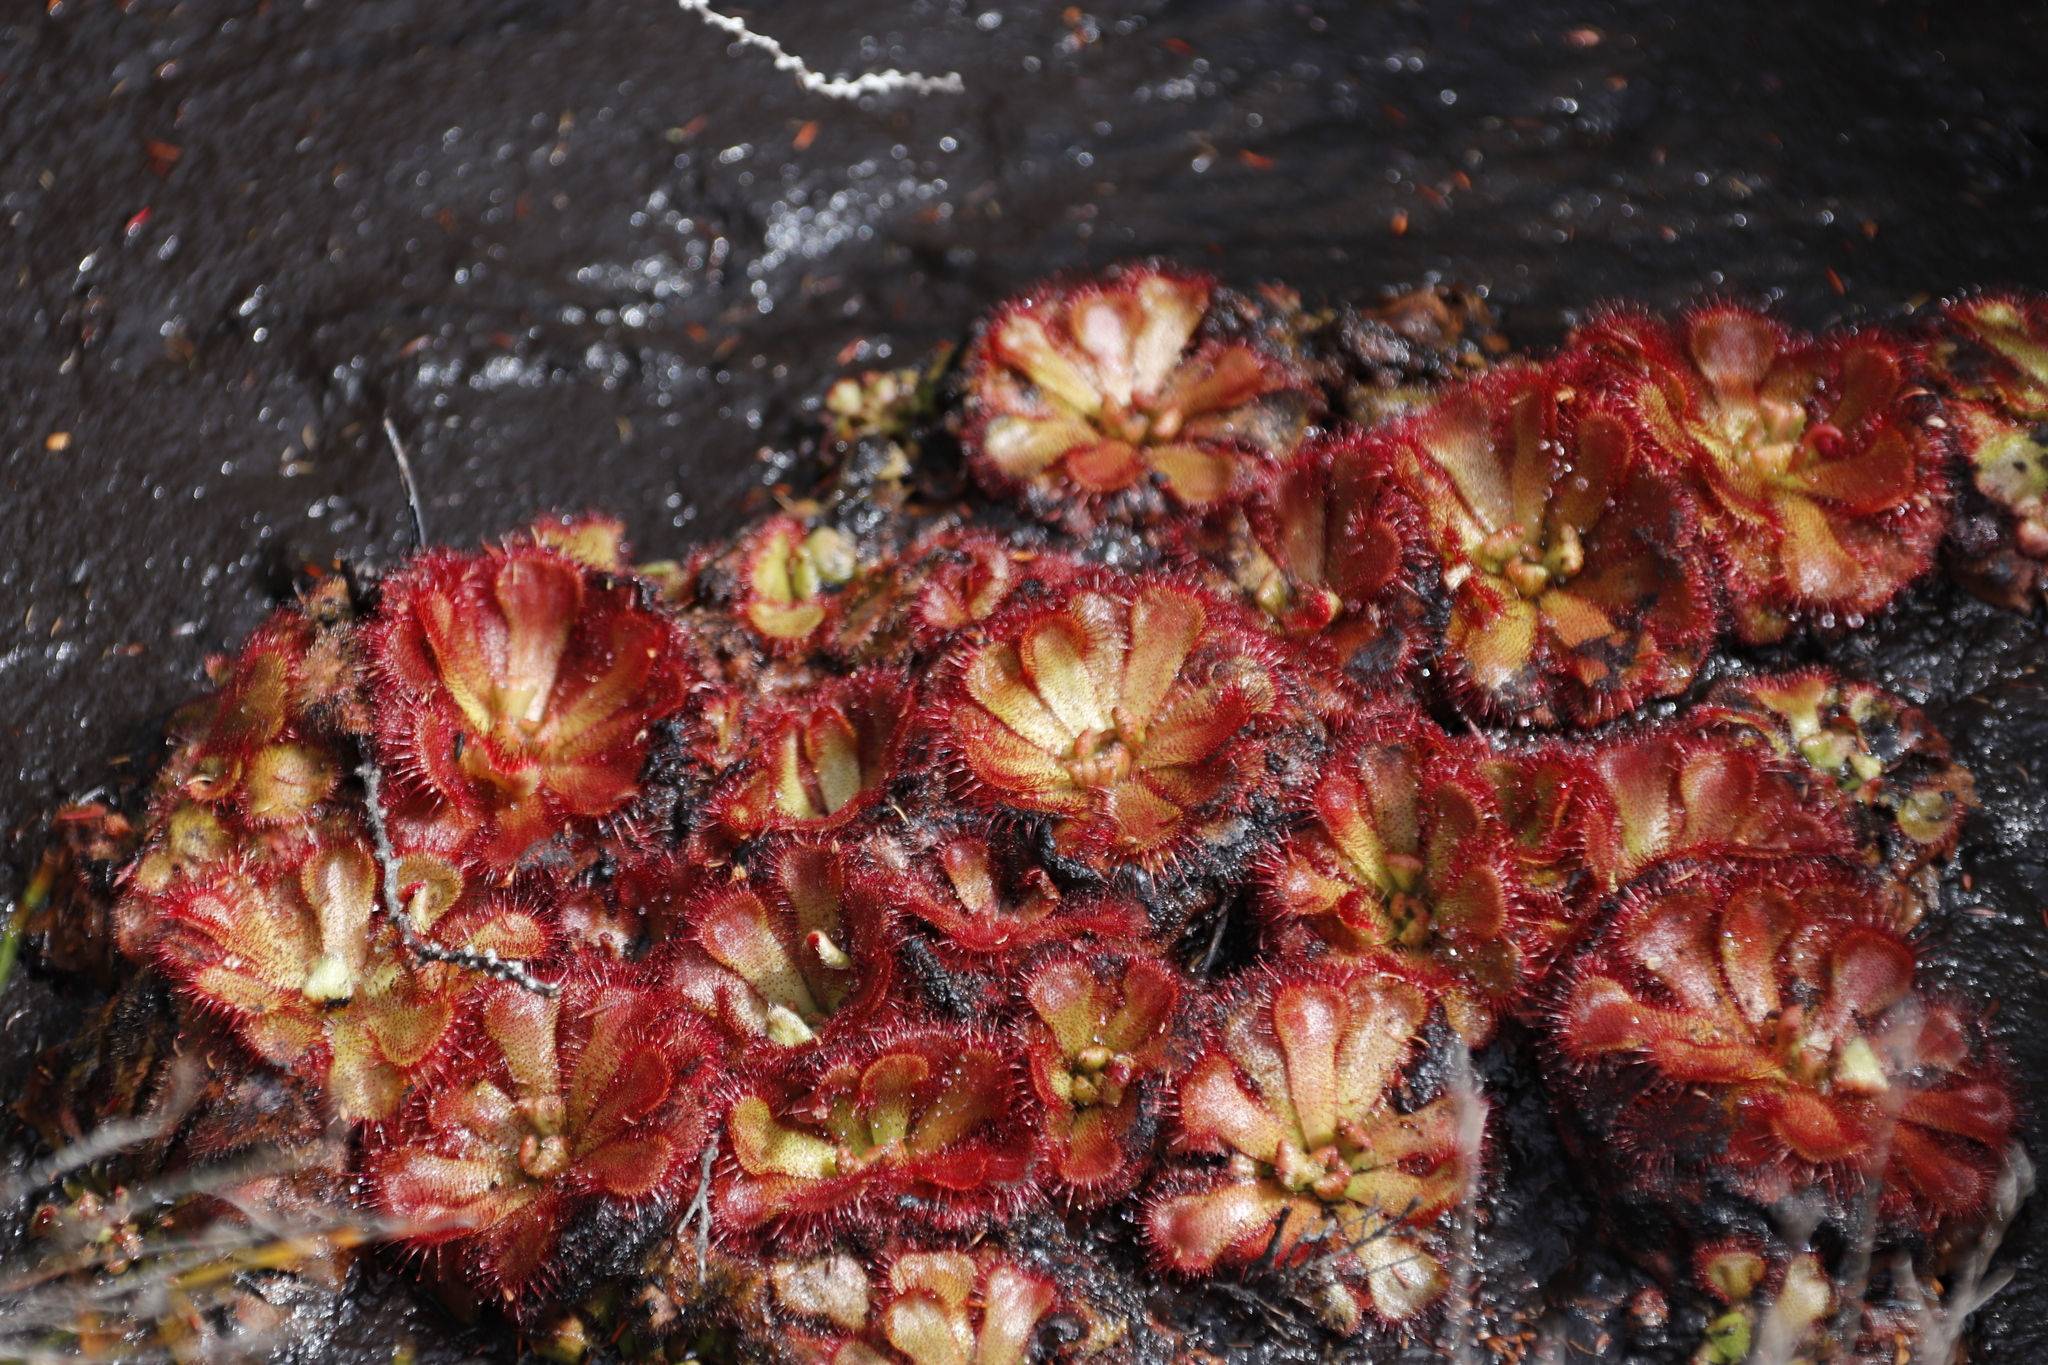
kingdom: Plantae
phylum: Tracheophyta
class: Magnoliopsida
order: Caryophyllales
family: Droseraceae
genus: Drosera
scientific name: Drosera aliciae
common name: Alice sundew
